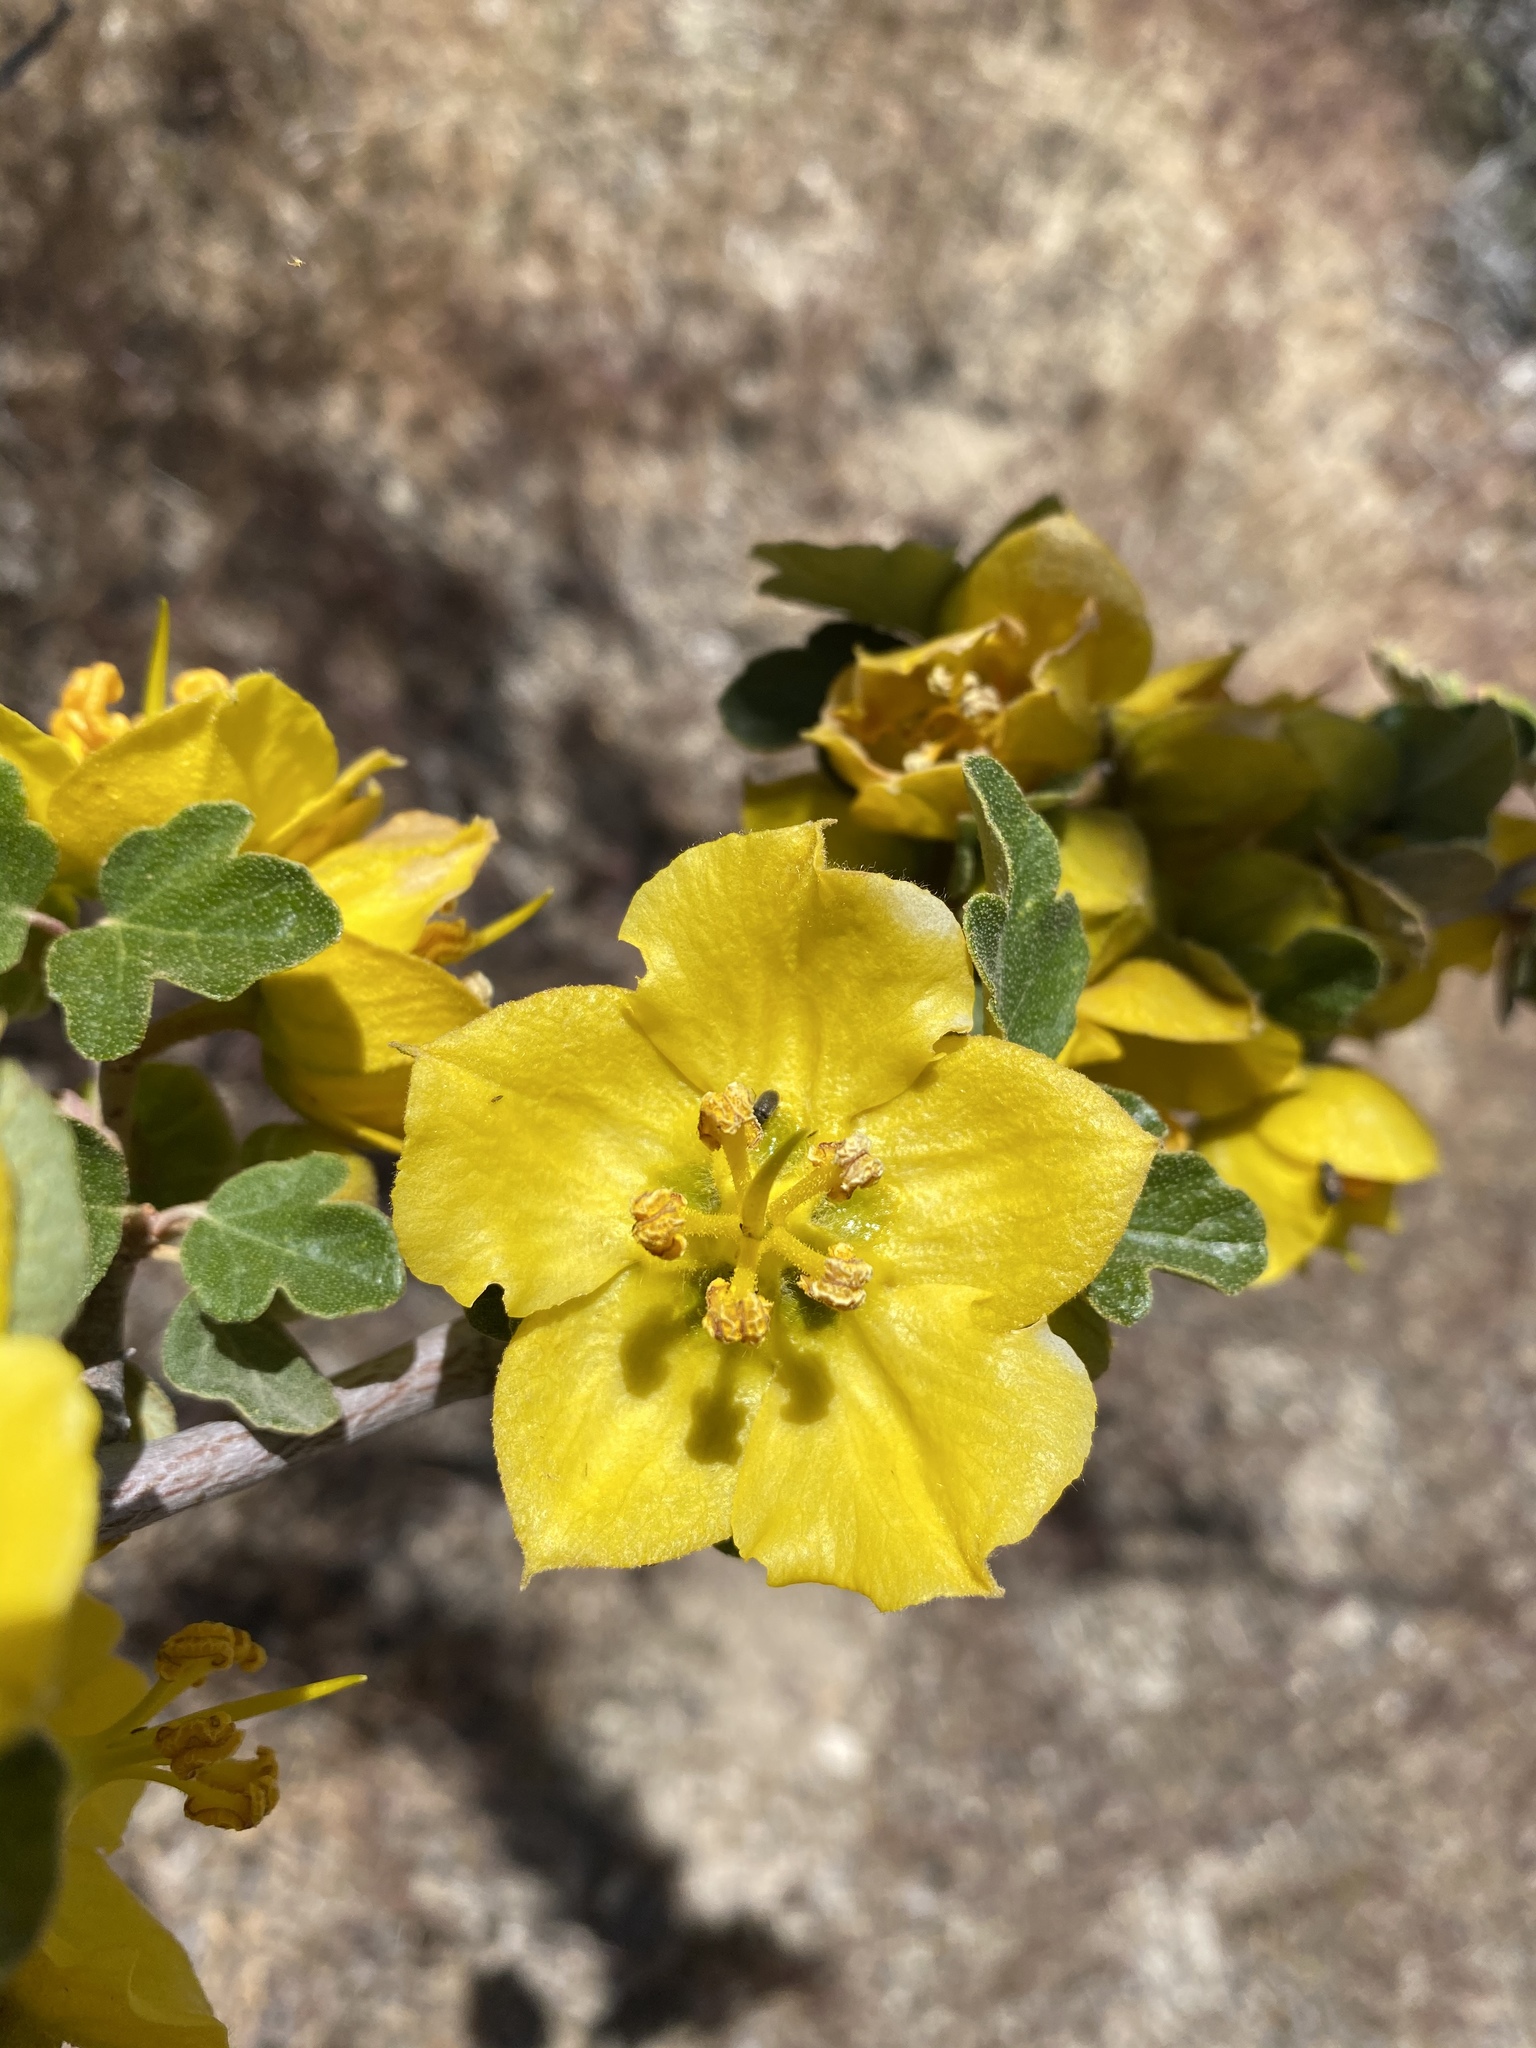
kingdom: Plantae
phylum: Tracheophyta
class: Magnoliopsida
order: Malvales
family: Malvaceae
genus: Fremontodendron
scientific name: Fremontodendron californicum
